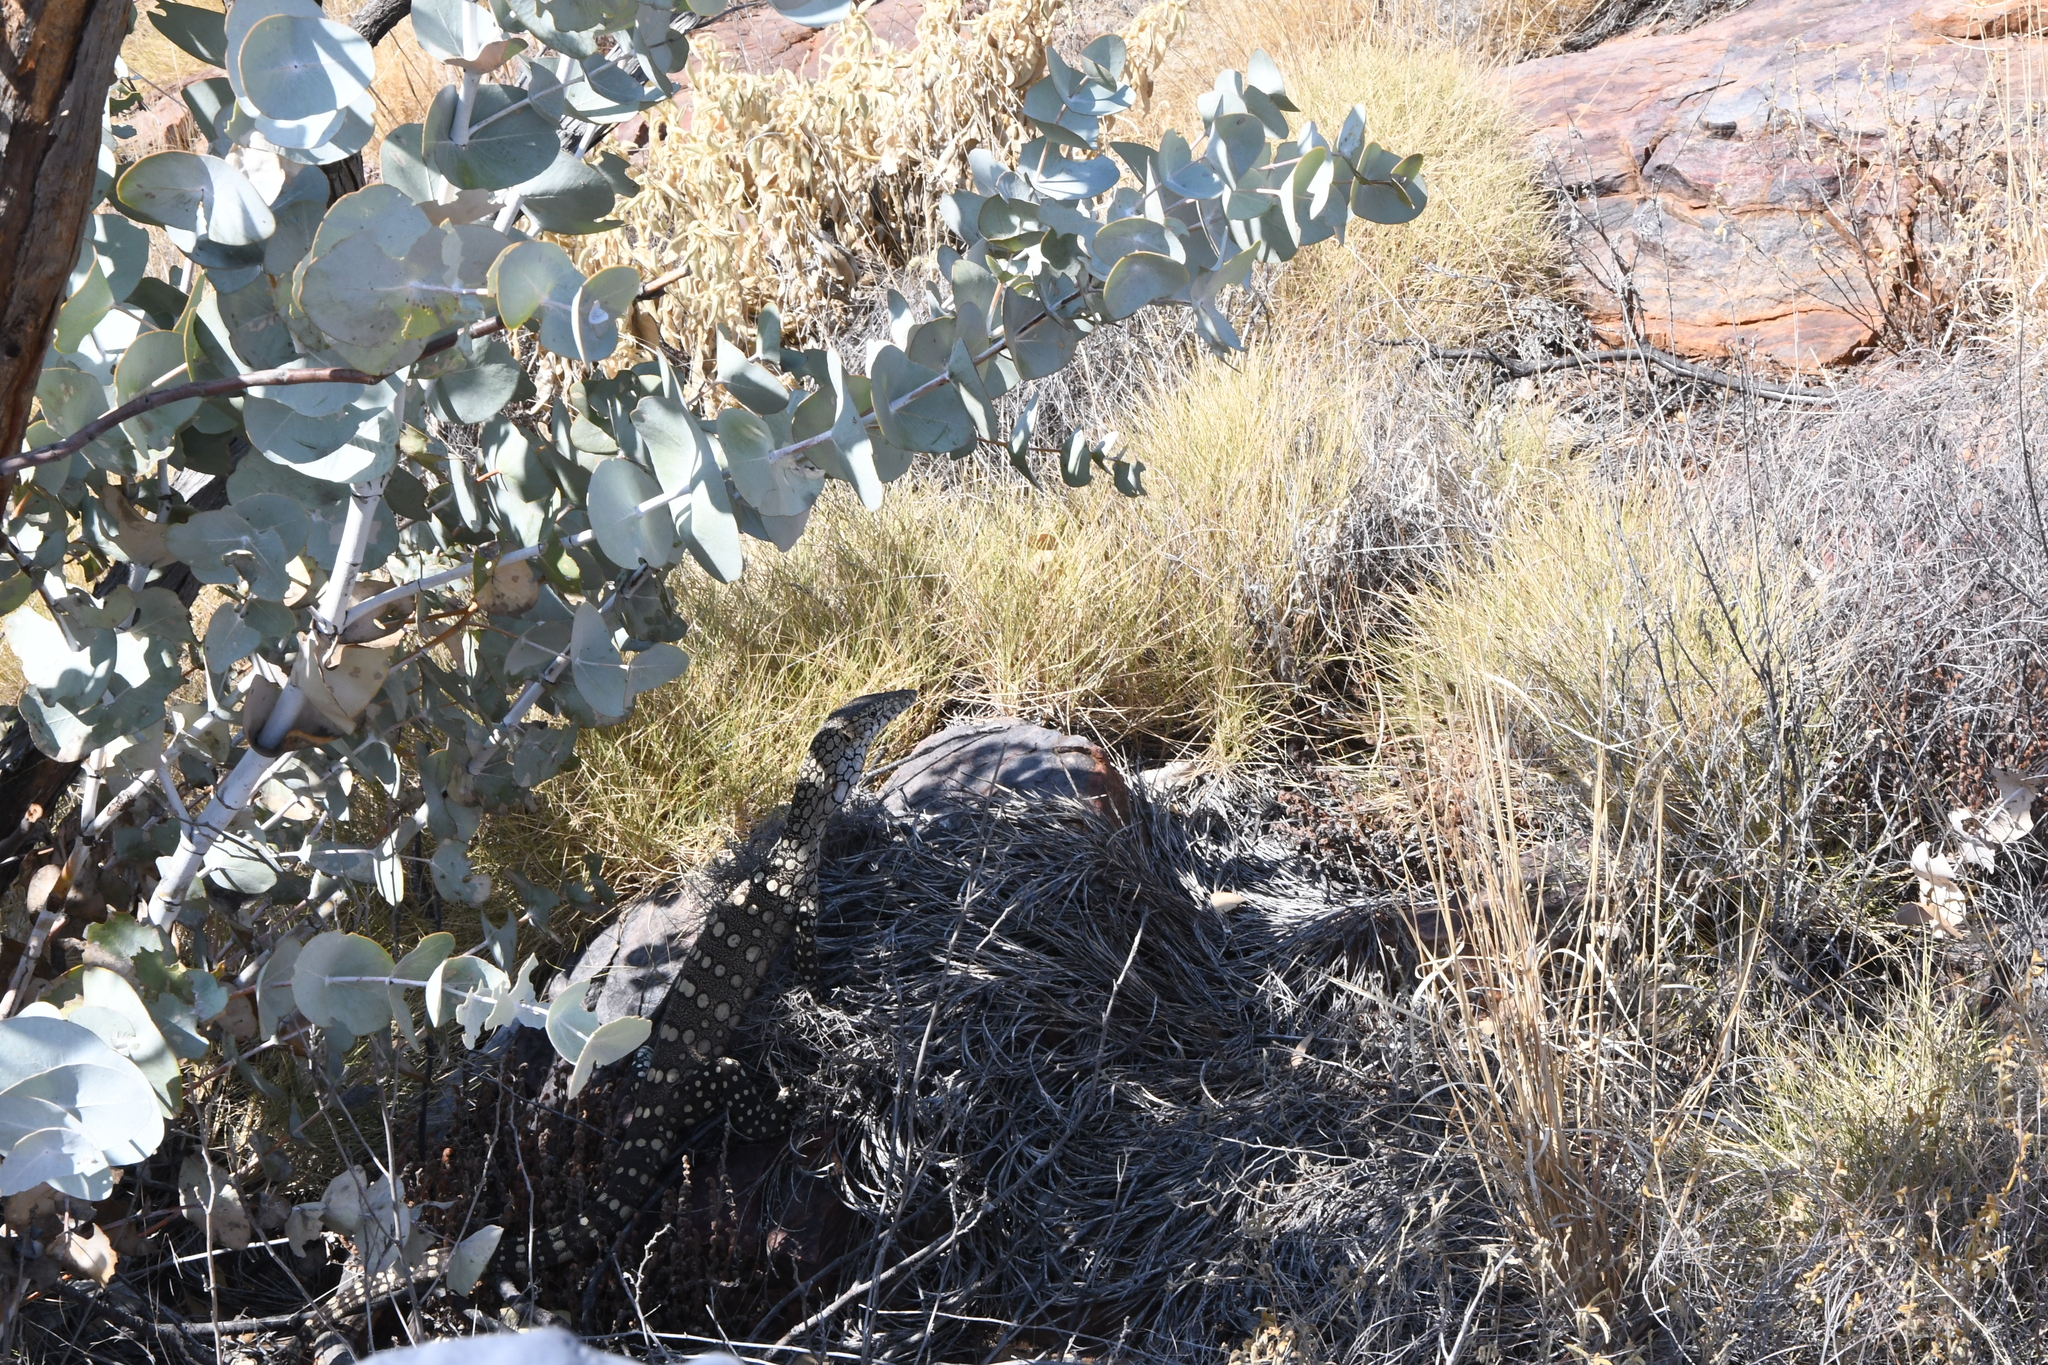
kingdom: Plantae
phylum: Tracheophyta
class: Magnoliopsida
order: Myrtales
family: Myrtaceae
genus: Eucalyptus
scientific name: Eucalyptus gamophylla
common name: Blue mallee
